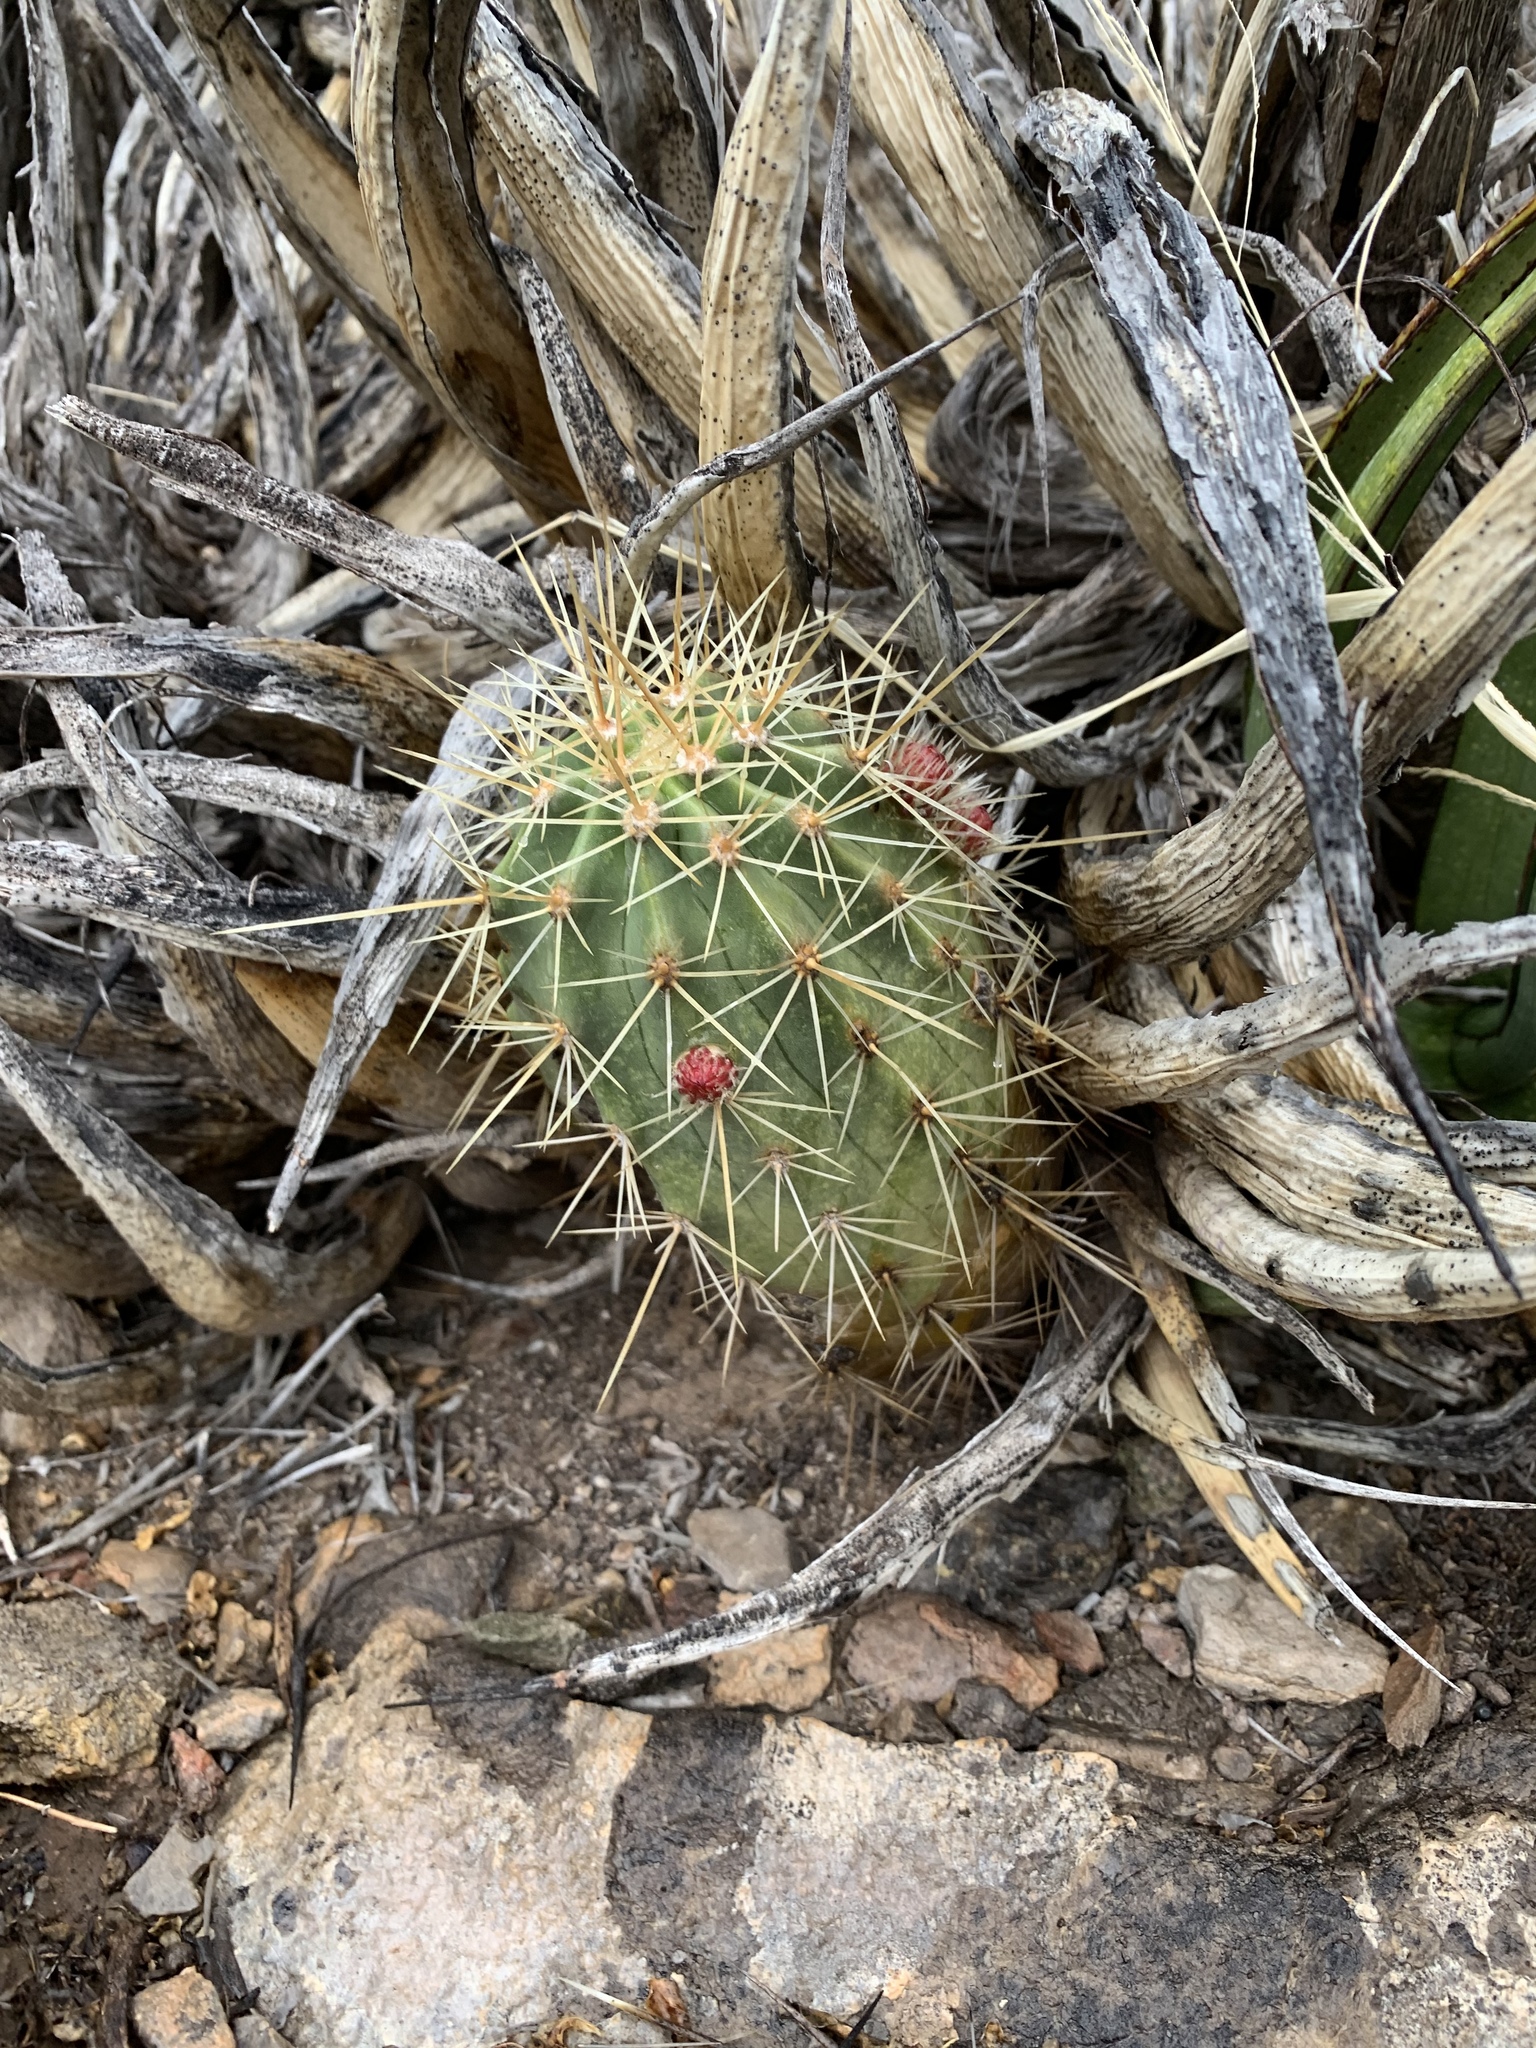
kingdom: Plantae
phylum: Tracheophyta
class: Magnoliopsida
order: Caryophyllales
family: Cactaceae
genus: Echinocereus
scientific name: Echinocereus coccineus
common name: Scarlet hedgehog cactus
